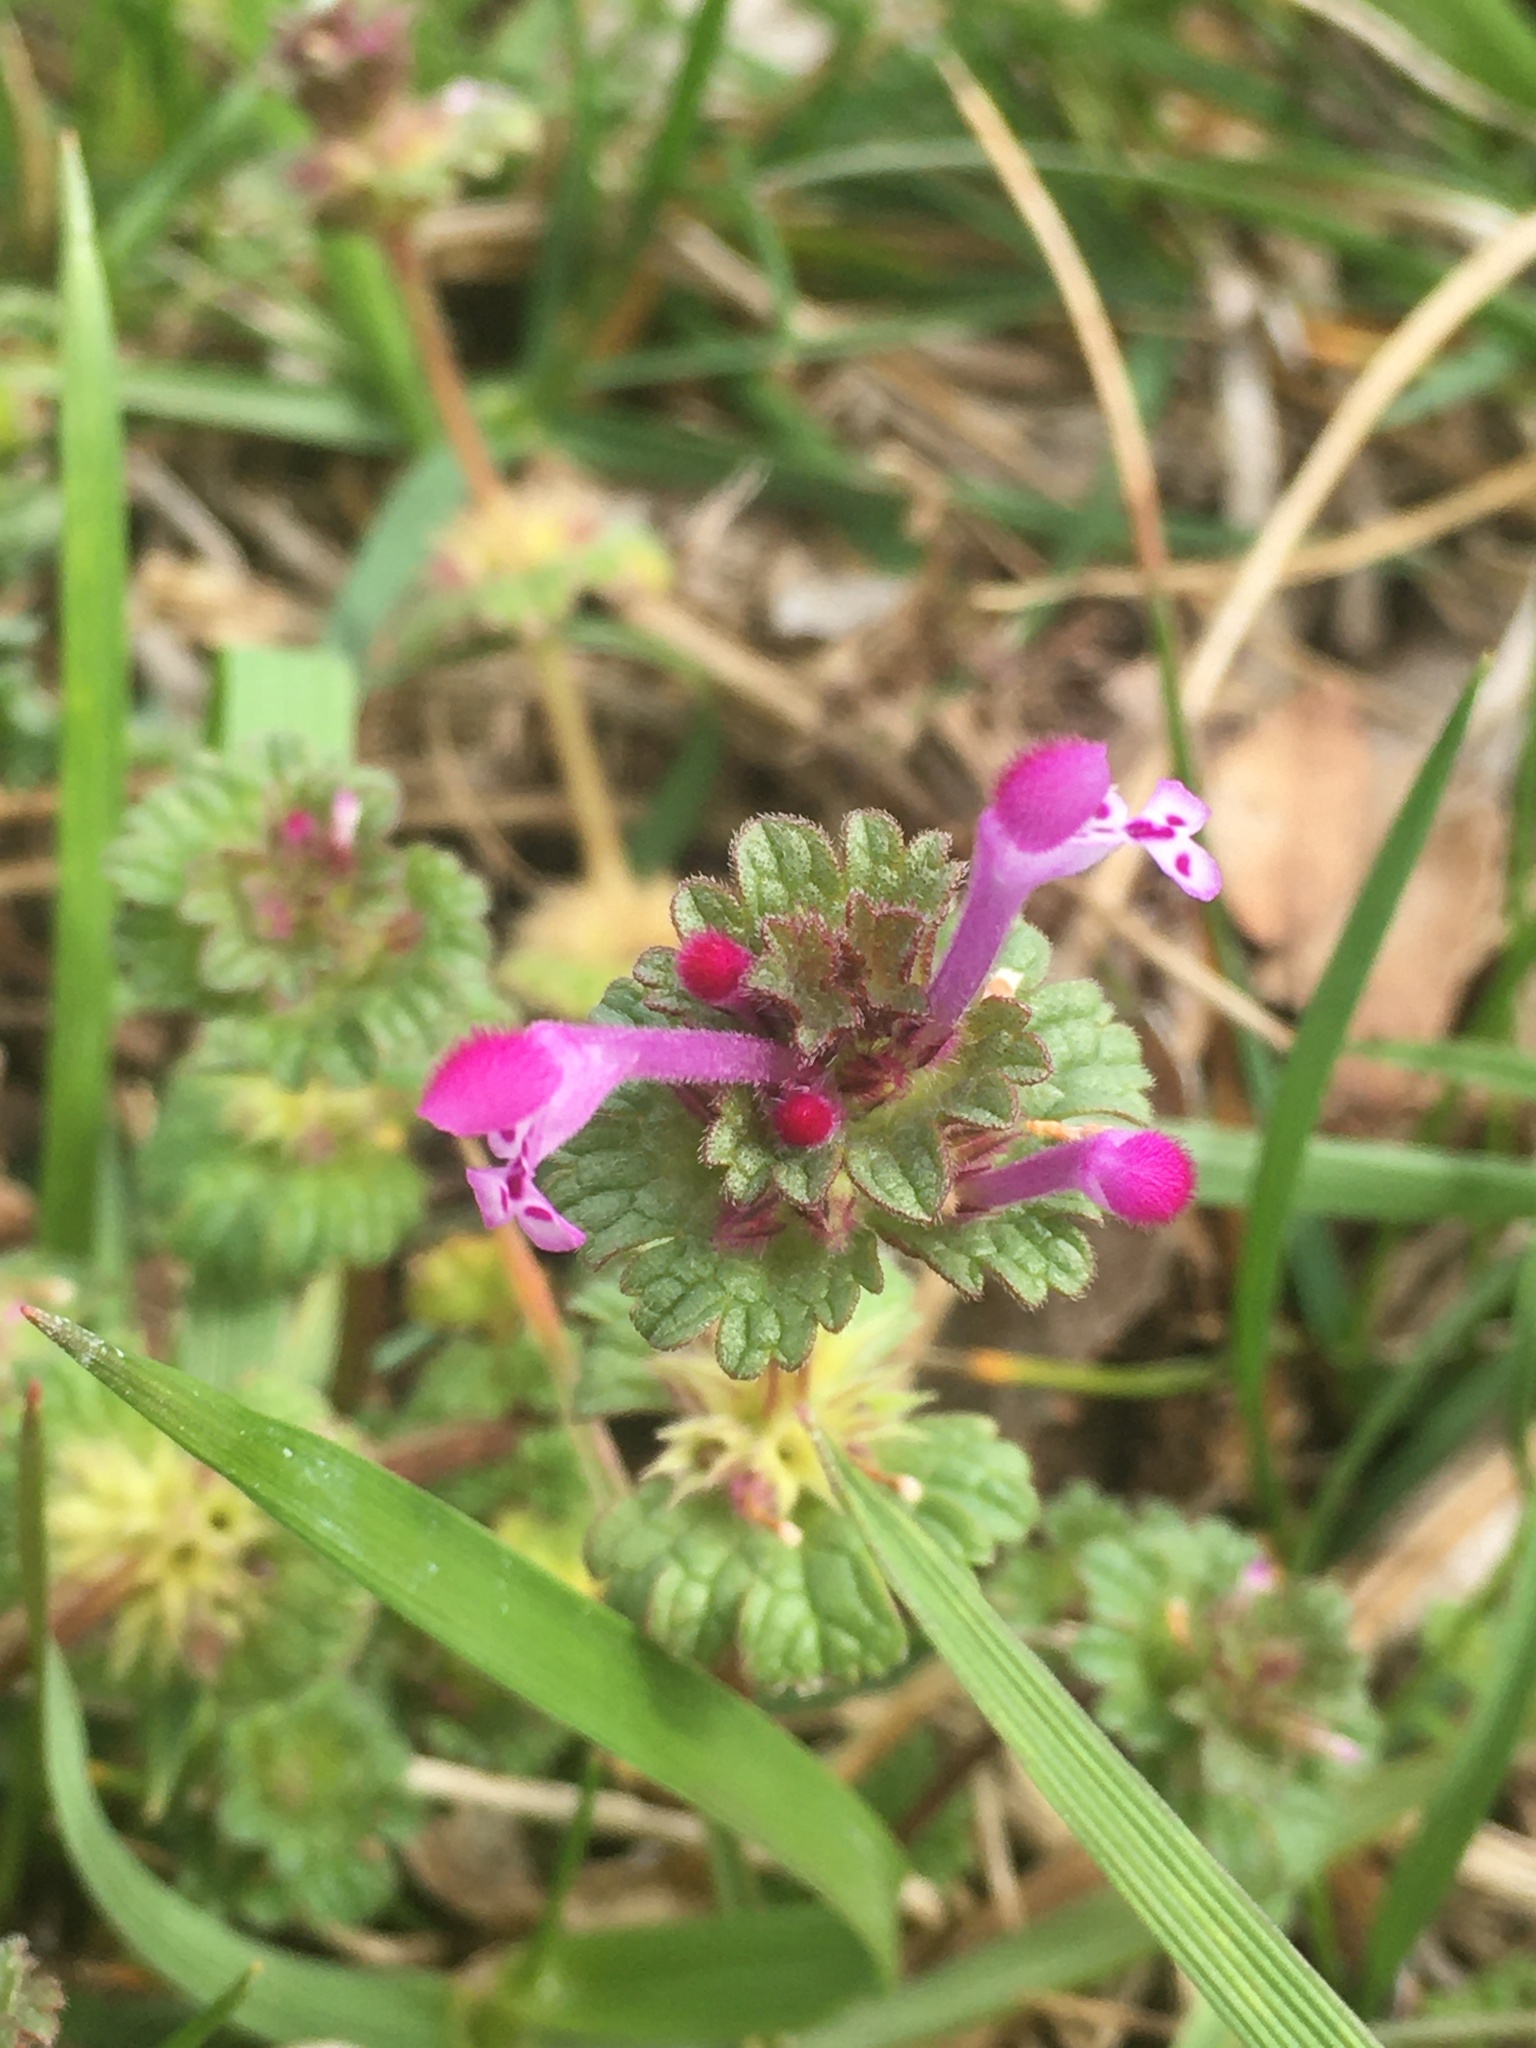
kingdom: Plantae
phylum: Tracheophyta
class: Magnoliopsida
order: Lamiales
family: Lamiaceae
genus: Lamium
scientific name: Lamium amplexicaule
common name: Henbit dead-nettle
